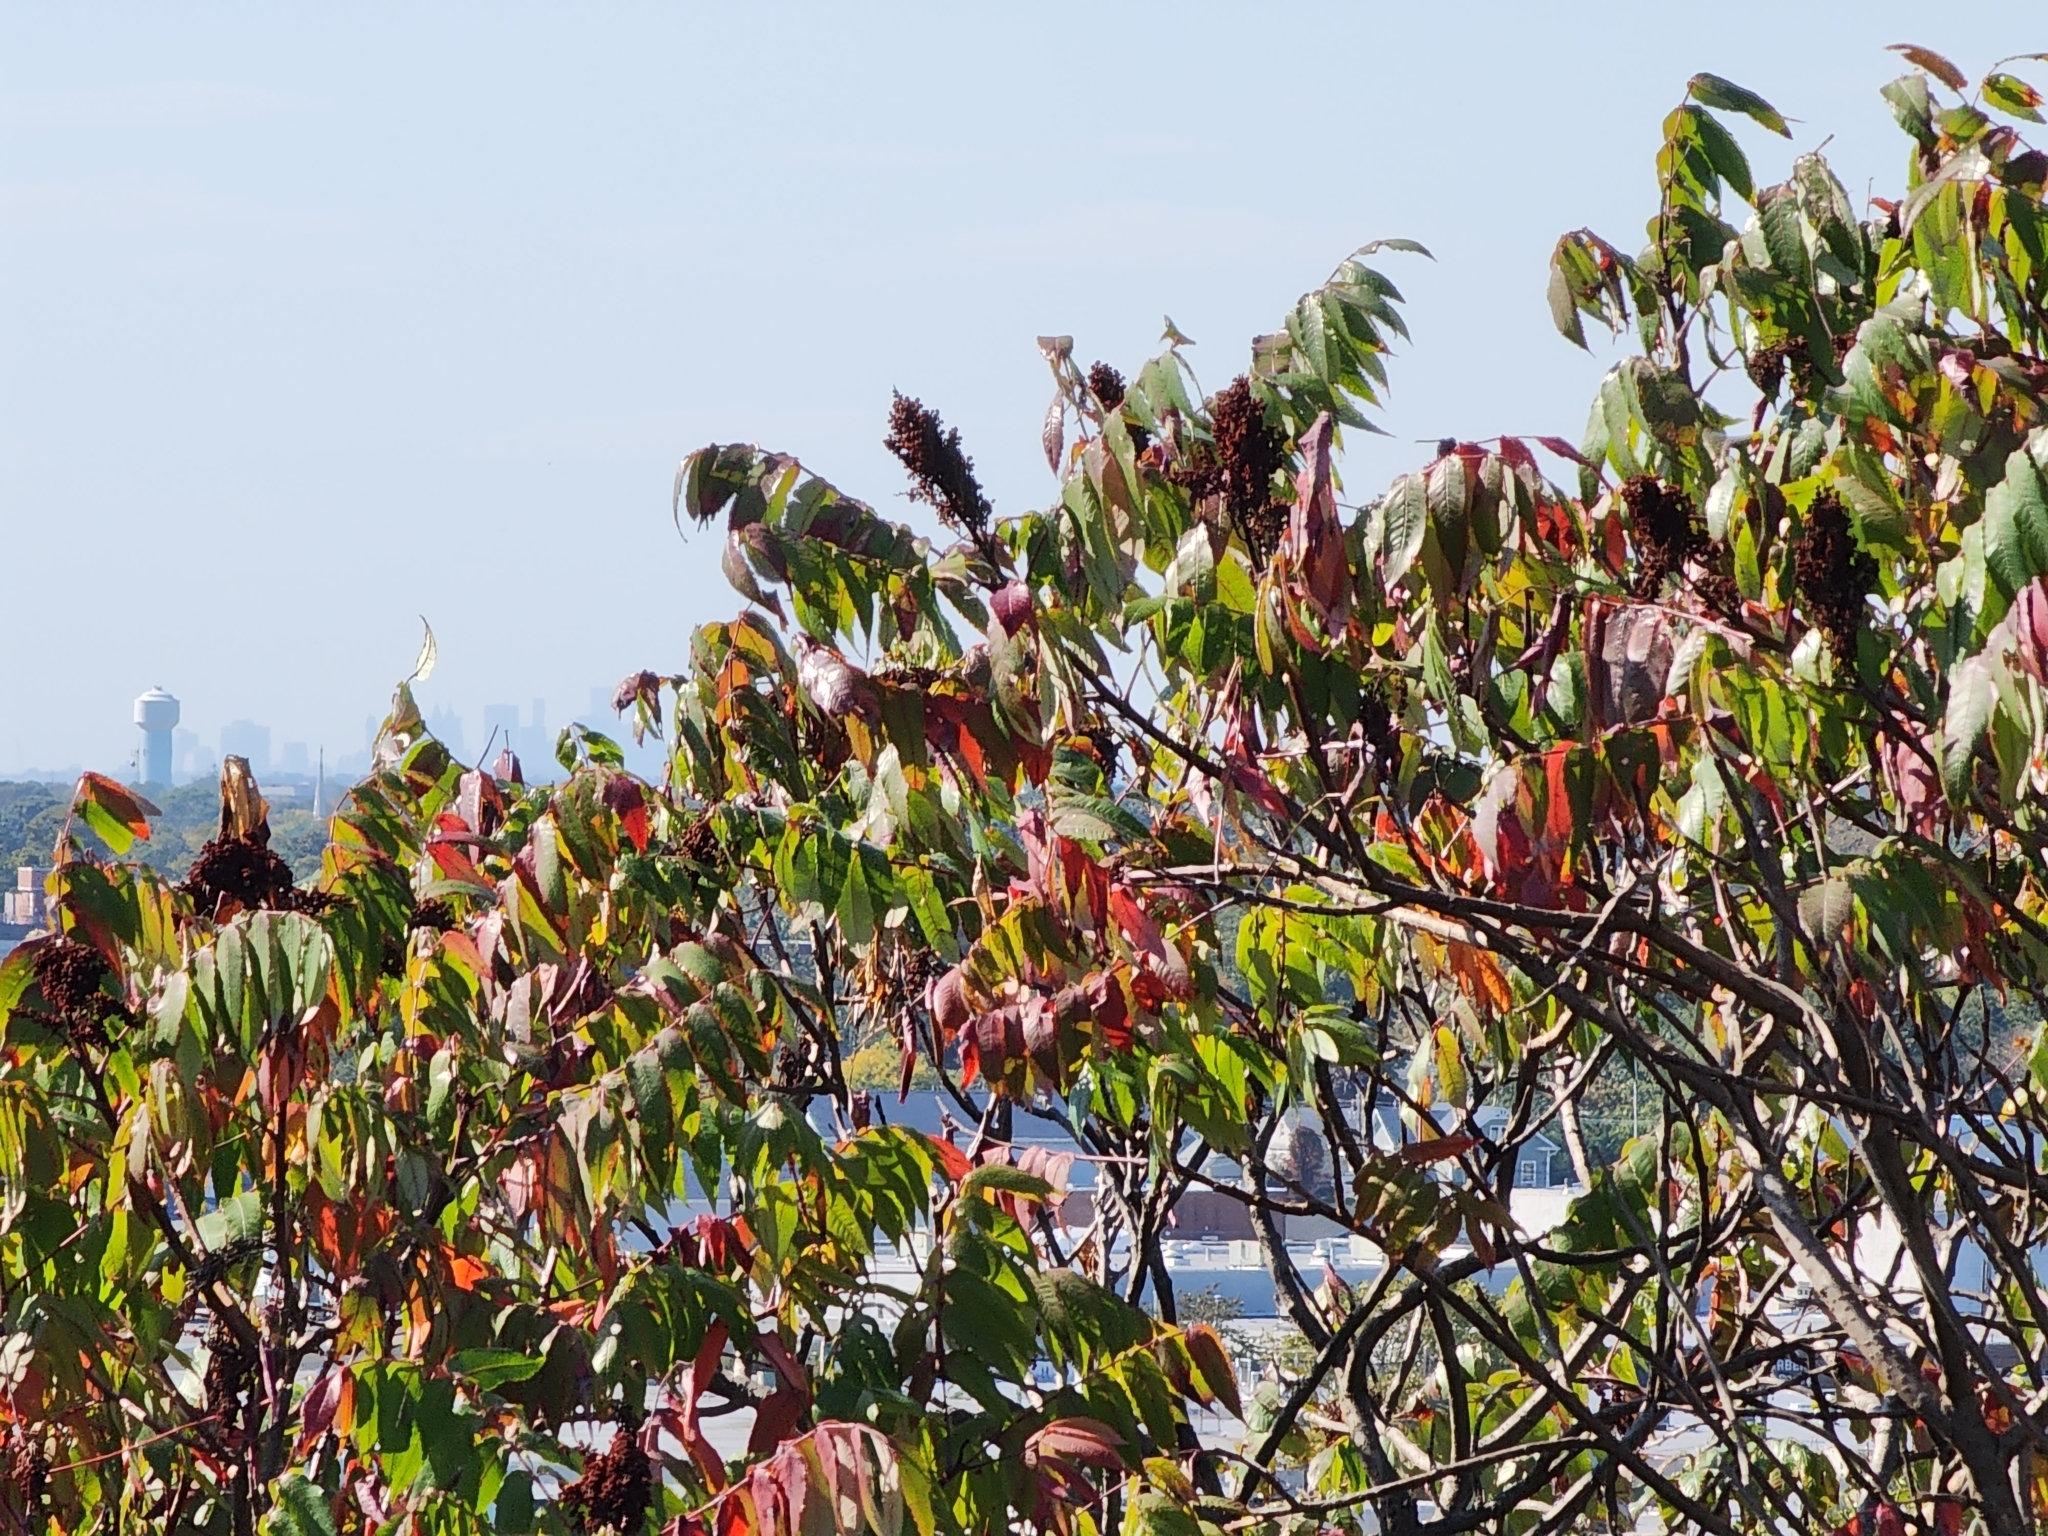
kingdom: Plantae
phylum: Tracheophyta
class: Magnoliopsida
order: Sapindales
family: Anacardiaceae
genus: Rhus
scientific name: Rhus glabra
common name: Scarlet sumac
